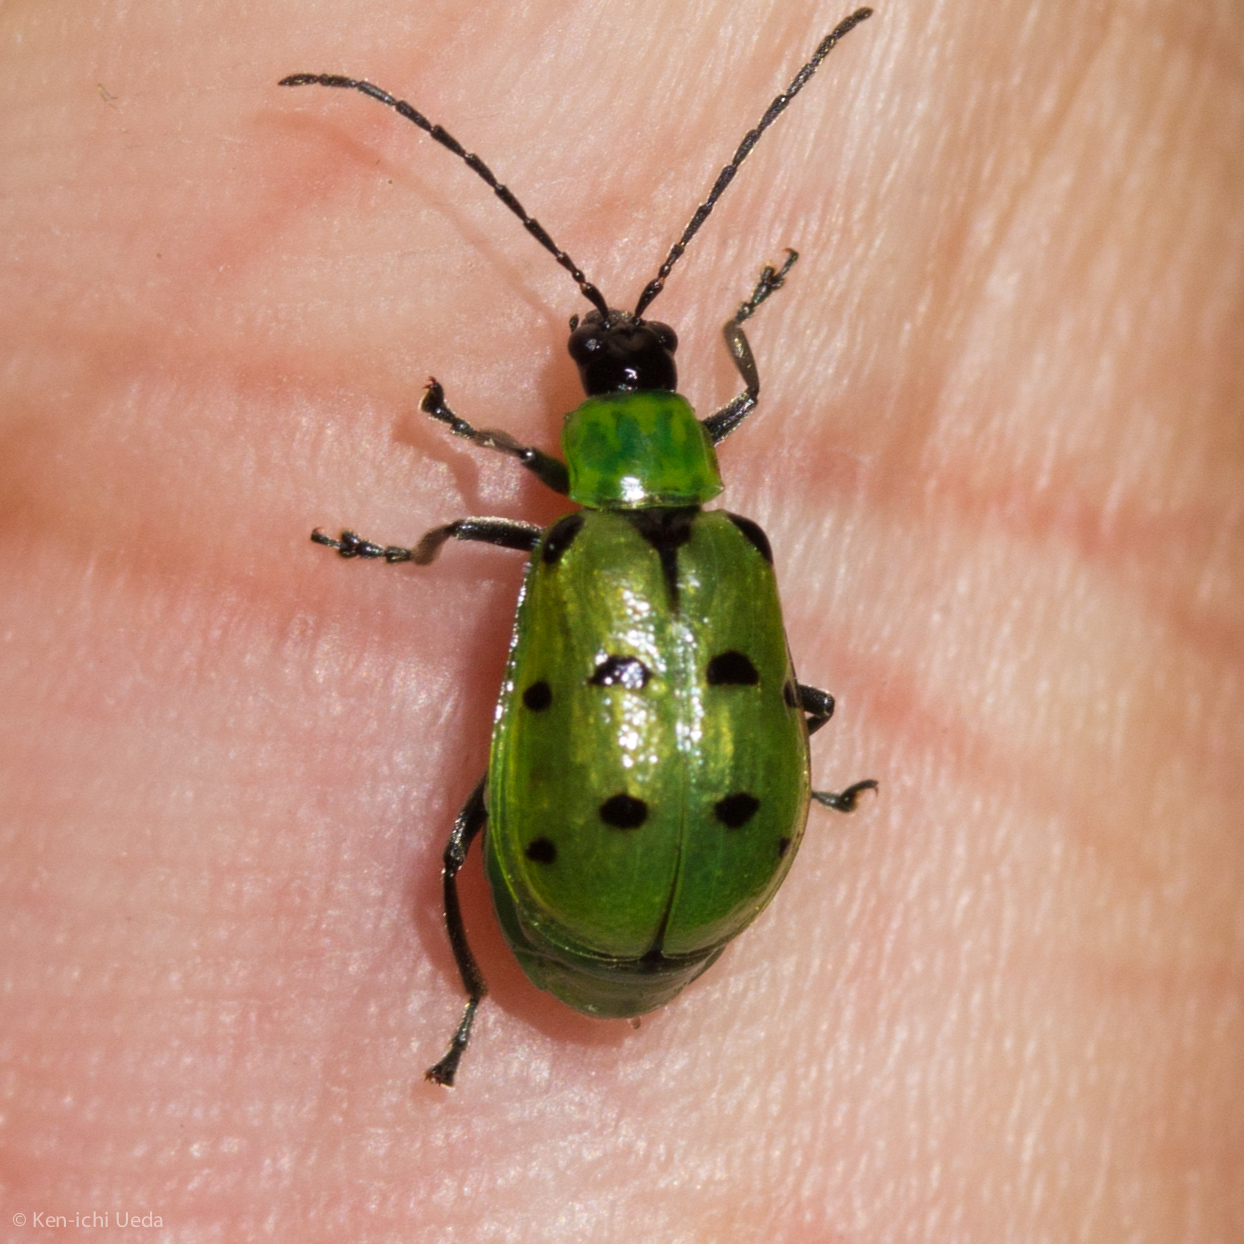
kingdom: Animalia
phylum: Arthropoda
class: Insecta
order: Coleoptera
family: Chrysomelidae
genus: Diabrotica
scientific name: Diabrotica decempunctata
